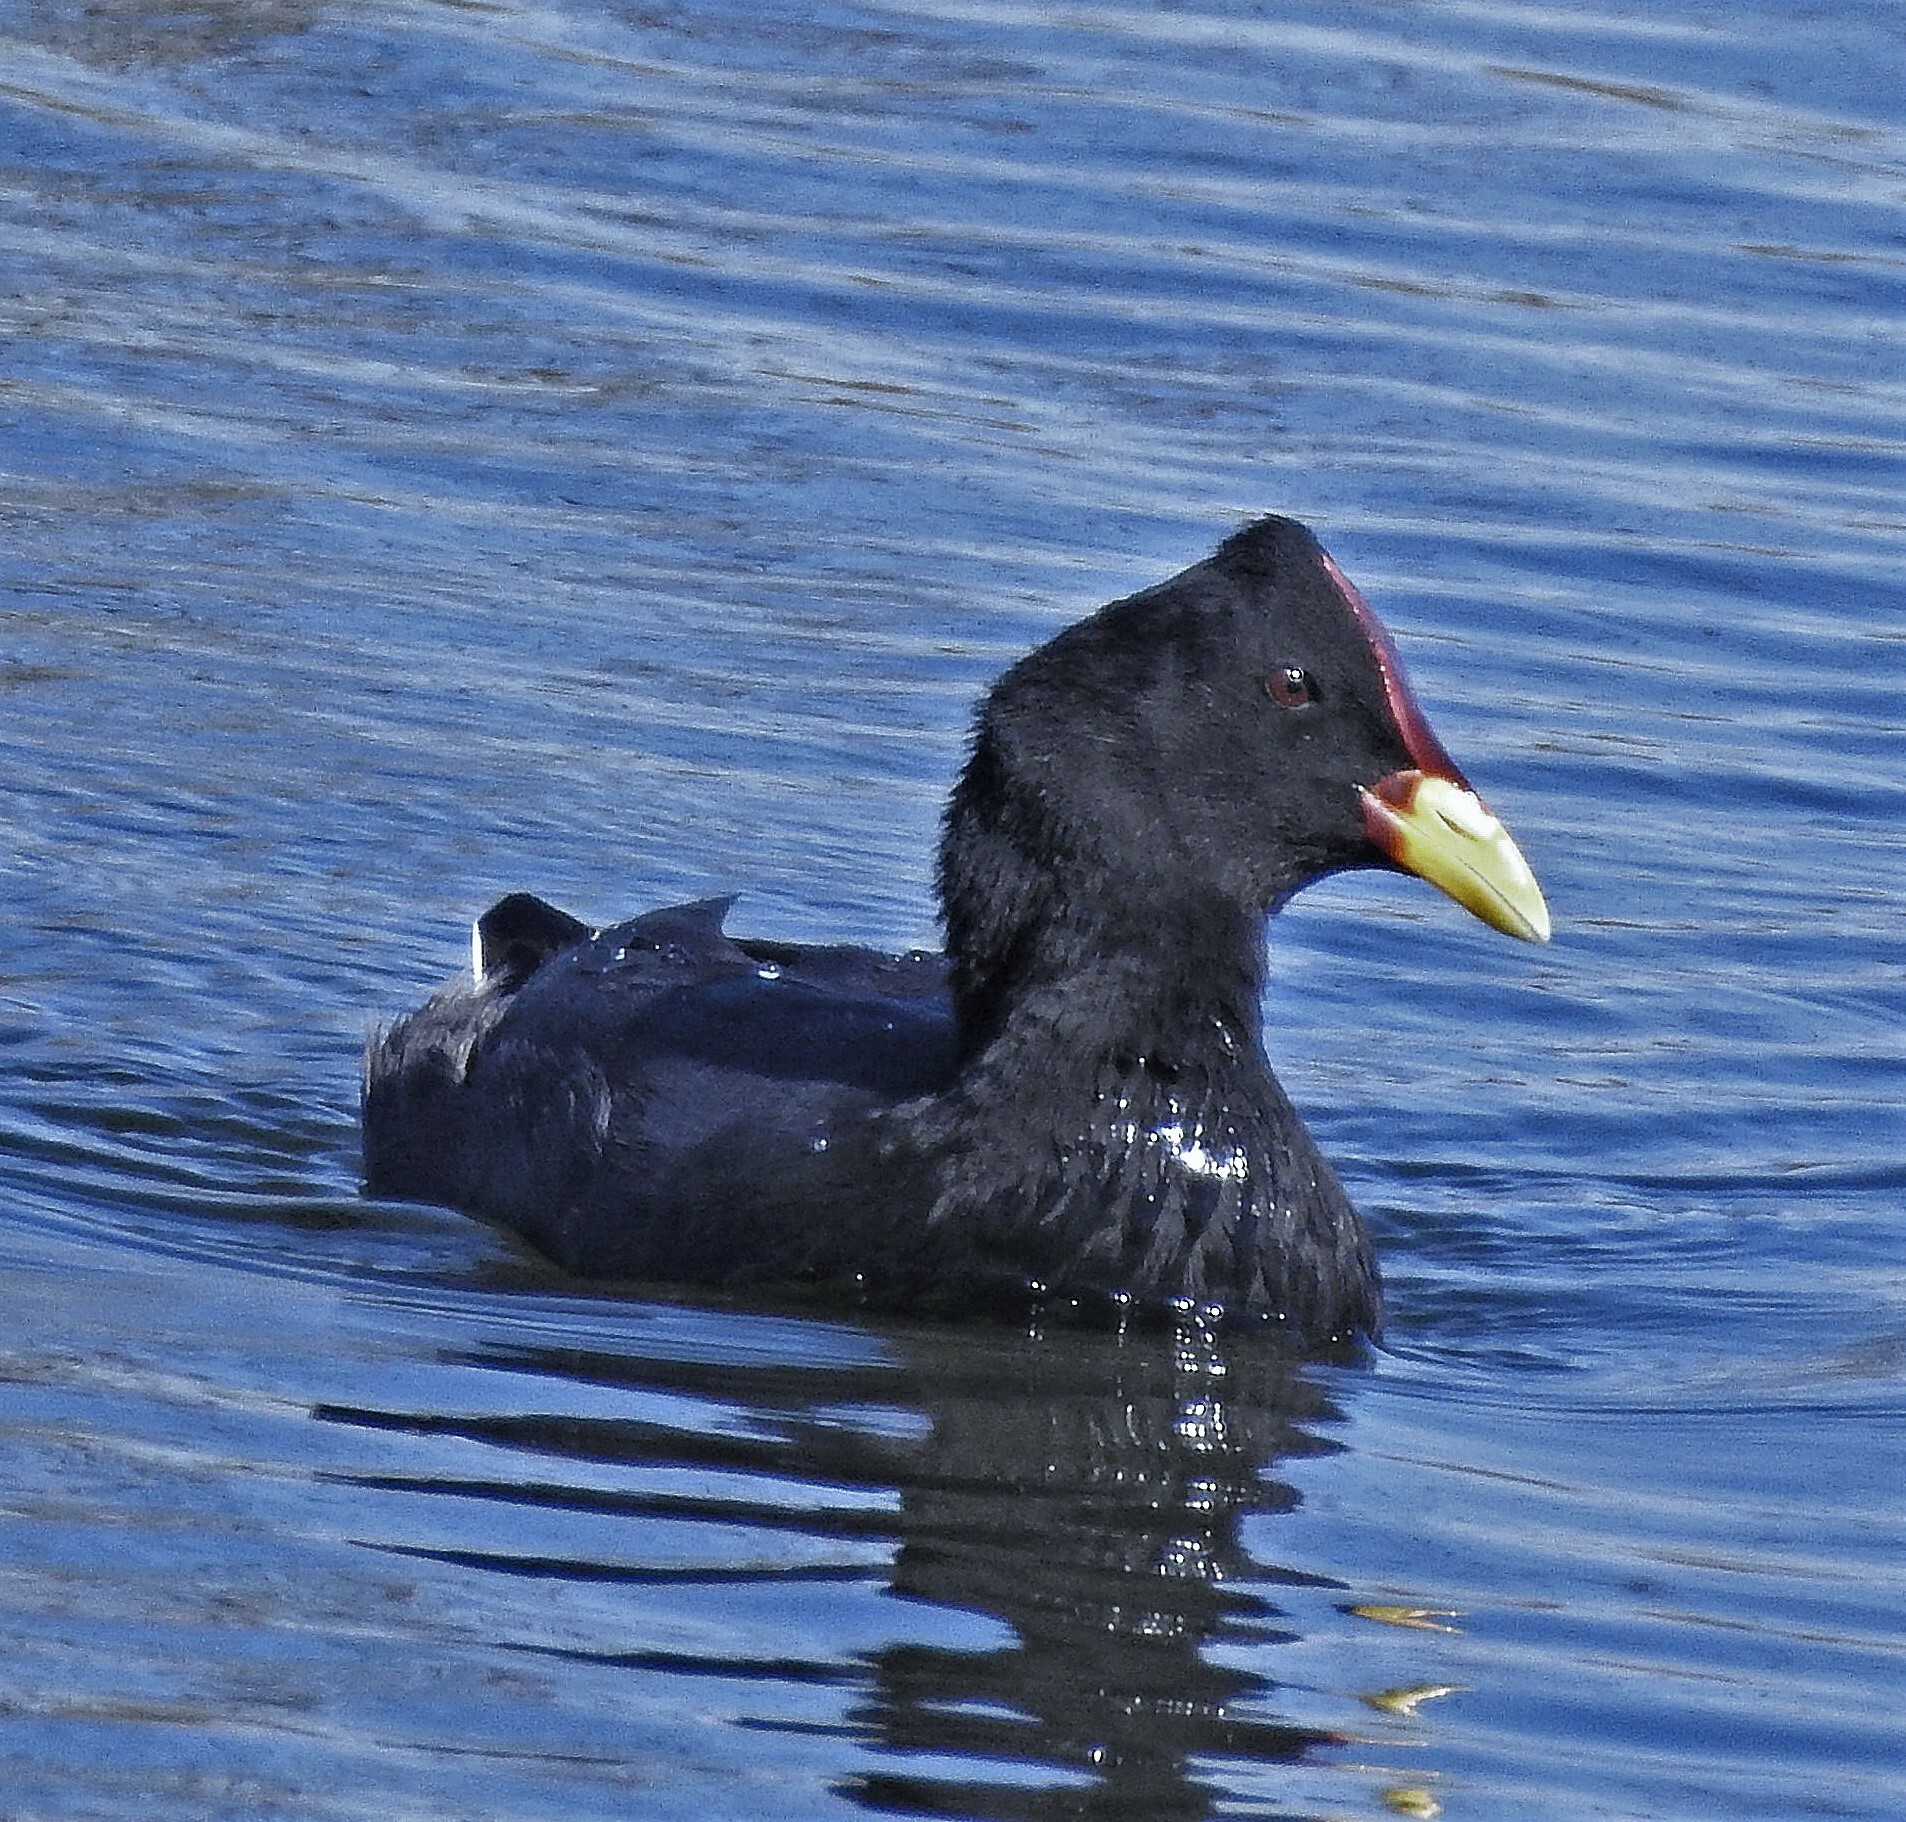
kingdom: Animalia
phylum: Chordata
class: Aves
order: Gruiformes
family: Rallidae
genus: Fulica
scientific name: Fulica rufifrons
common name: Red-fronted coot
